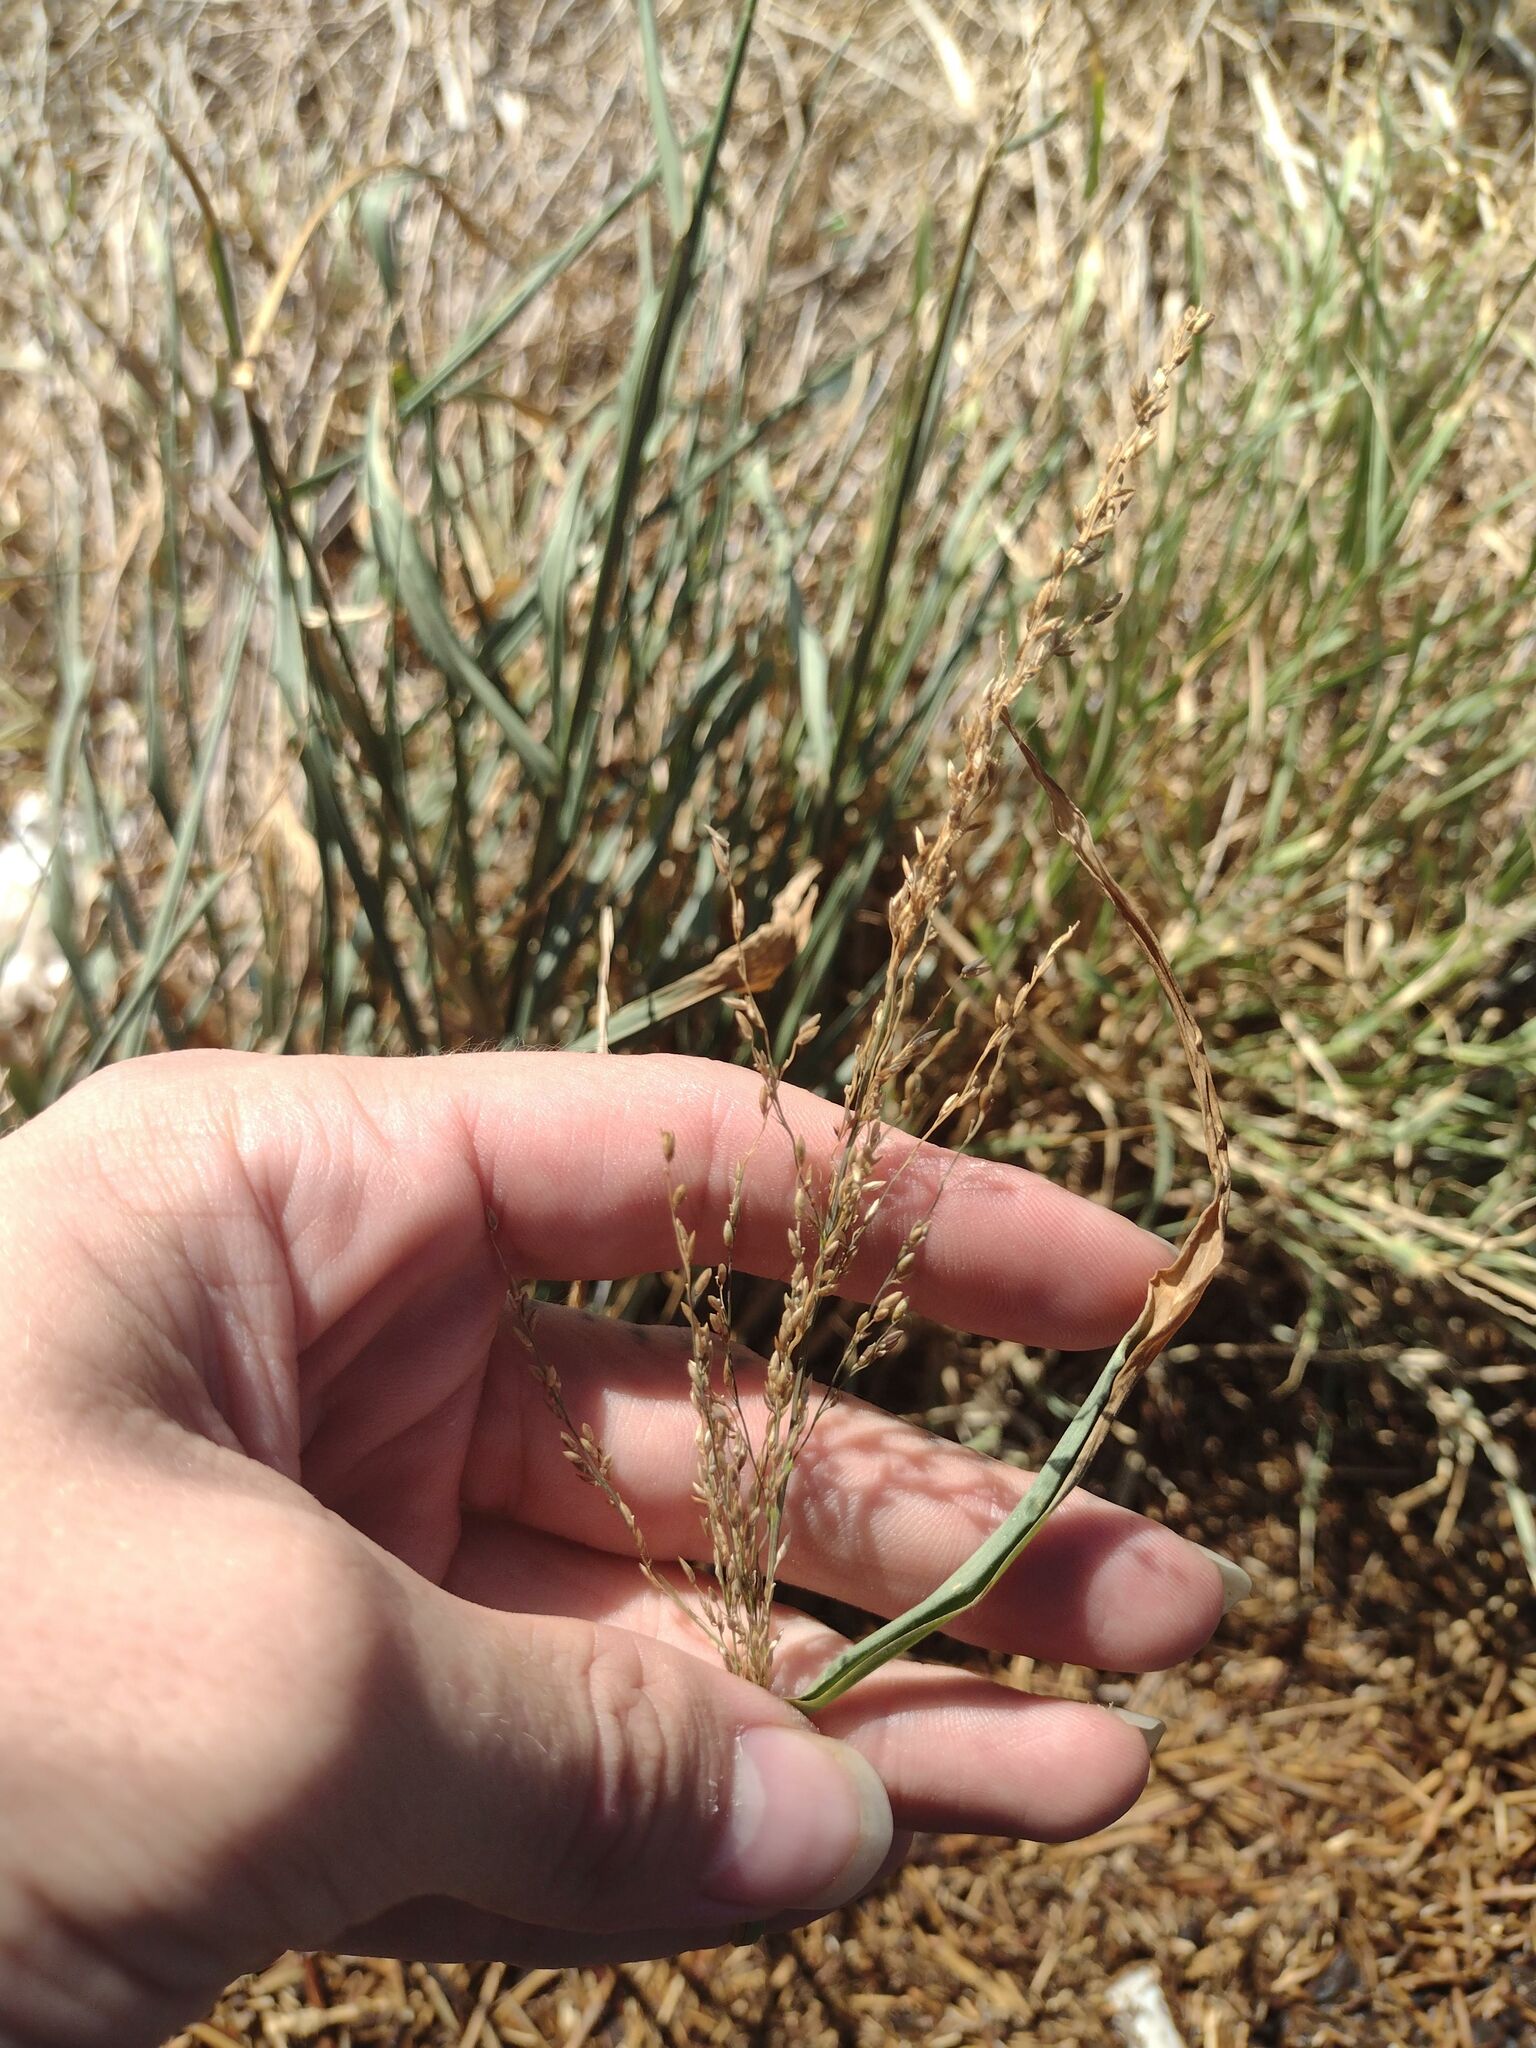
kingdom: Plantae
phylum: Tracheophyta
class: Liliopsida
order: Poales
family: Poaceae
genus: Megathyrsus
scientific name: Megathyrsus maximus
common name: Guineagrass
